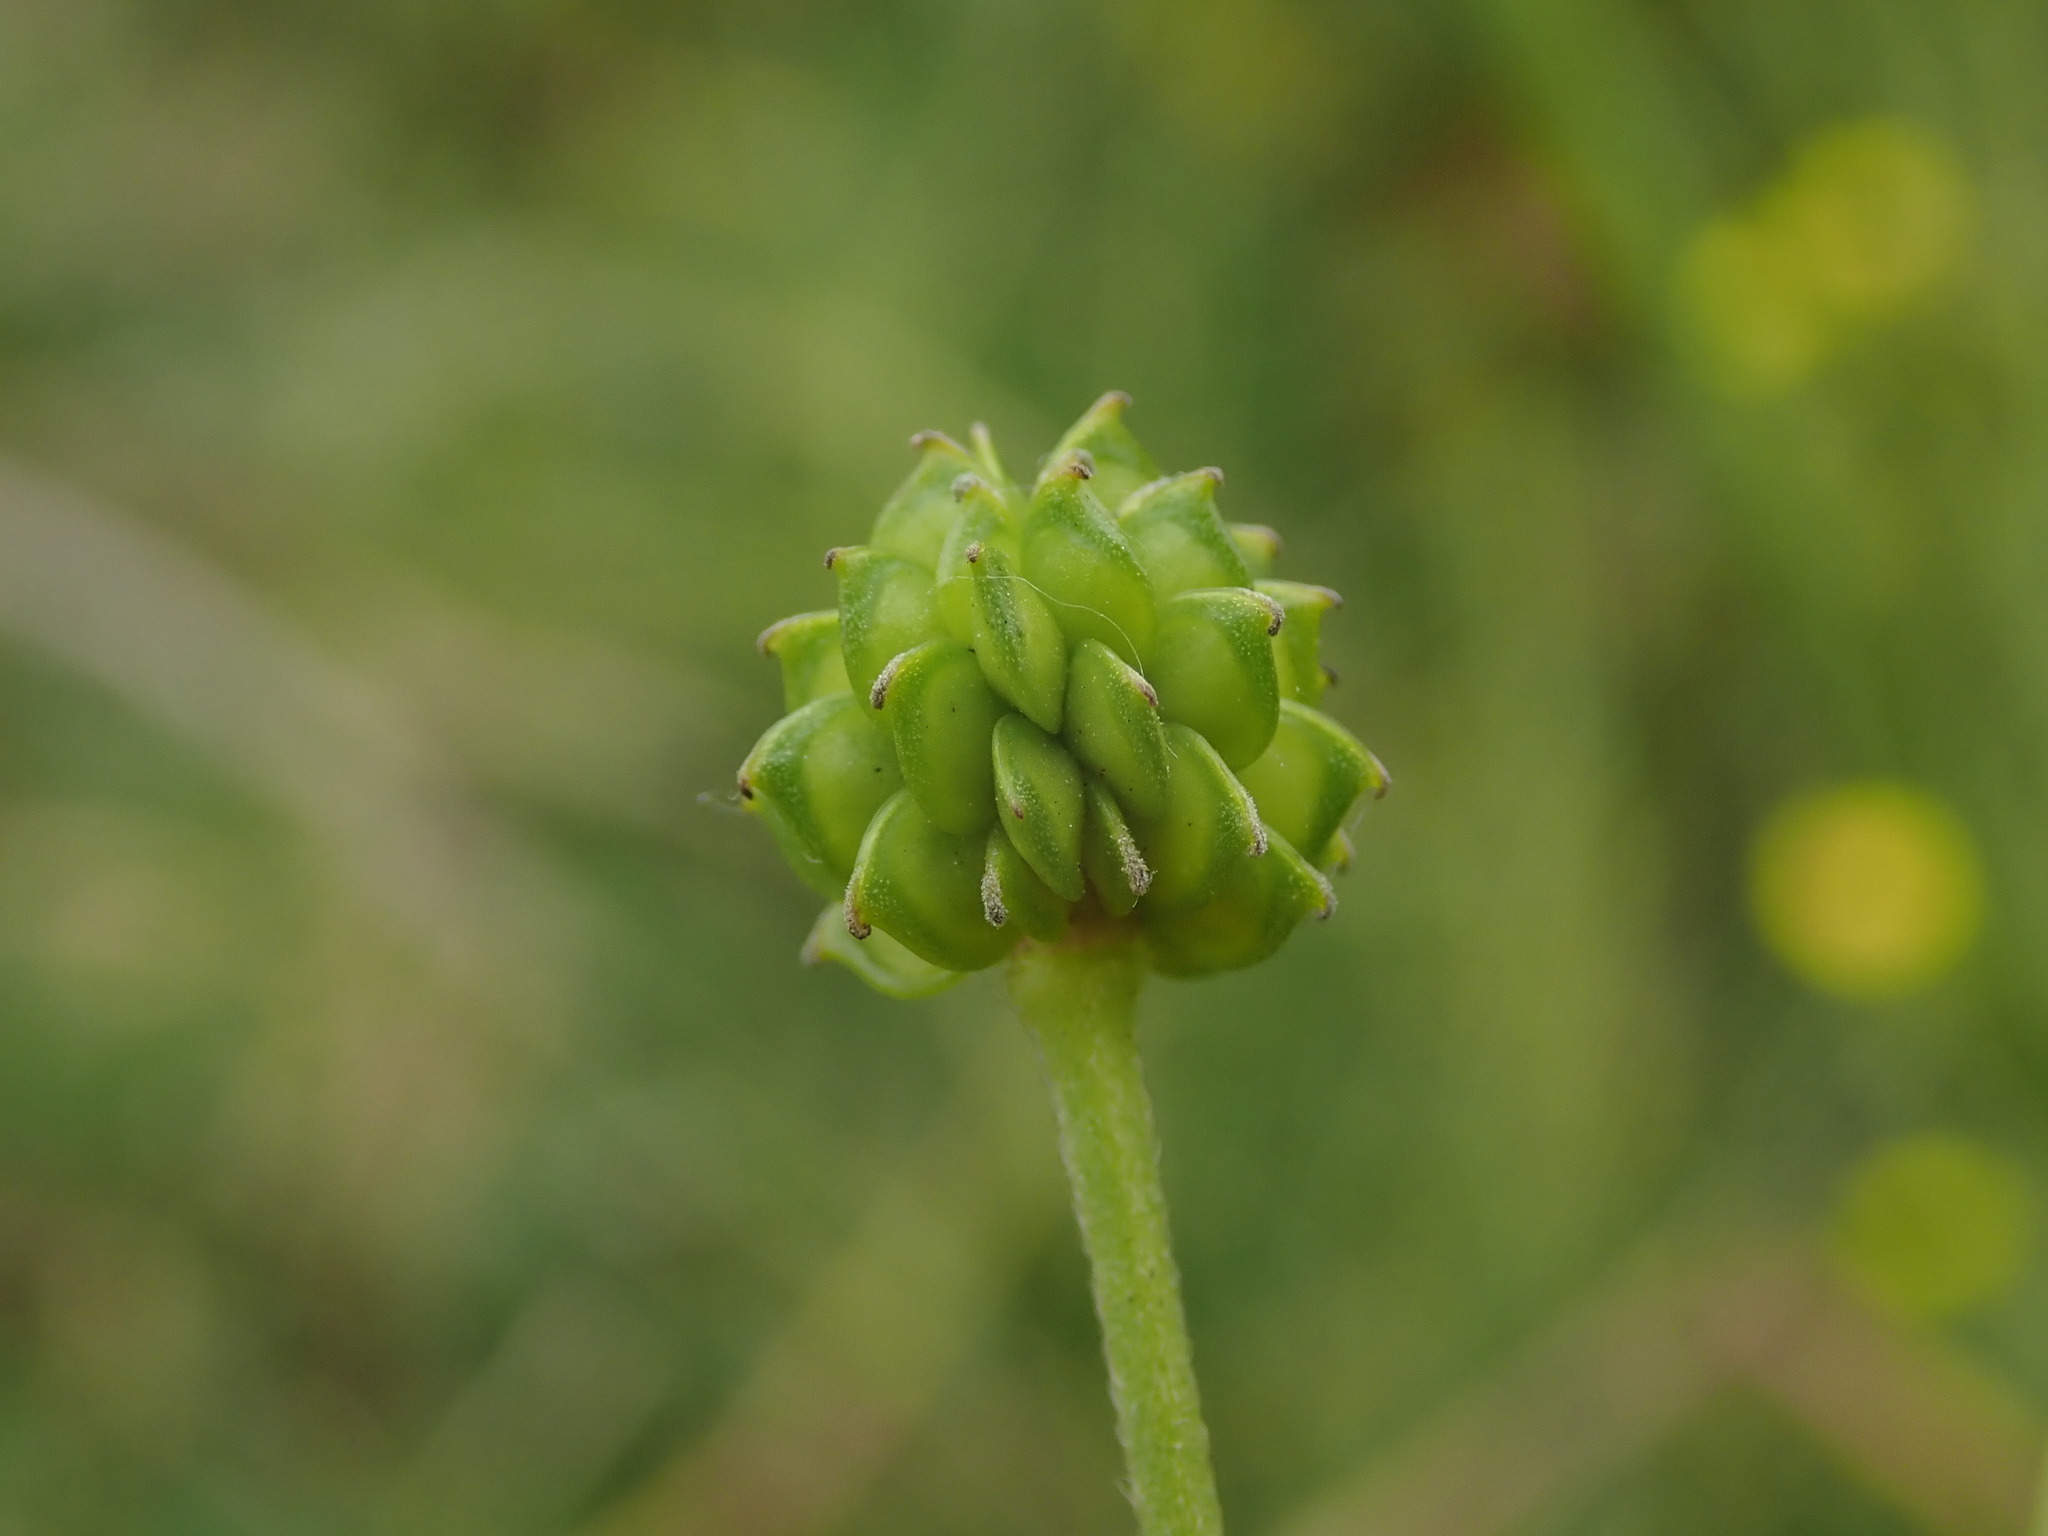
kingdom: Plantae
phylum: Tracheophyta
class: Magnoliopsida
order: Ranunculales
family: Ranunculaceae
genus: Ranunculus
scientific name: Ranunculus acris
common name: Meadow buttercup
